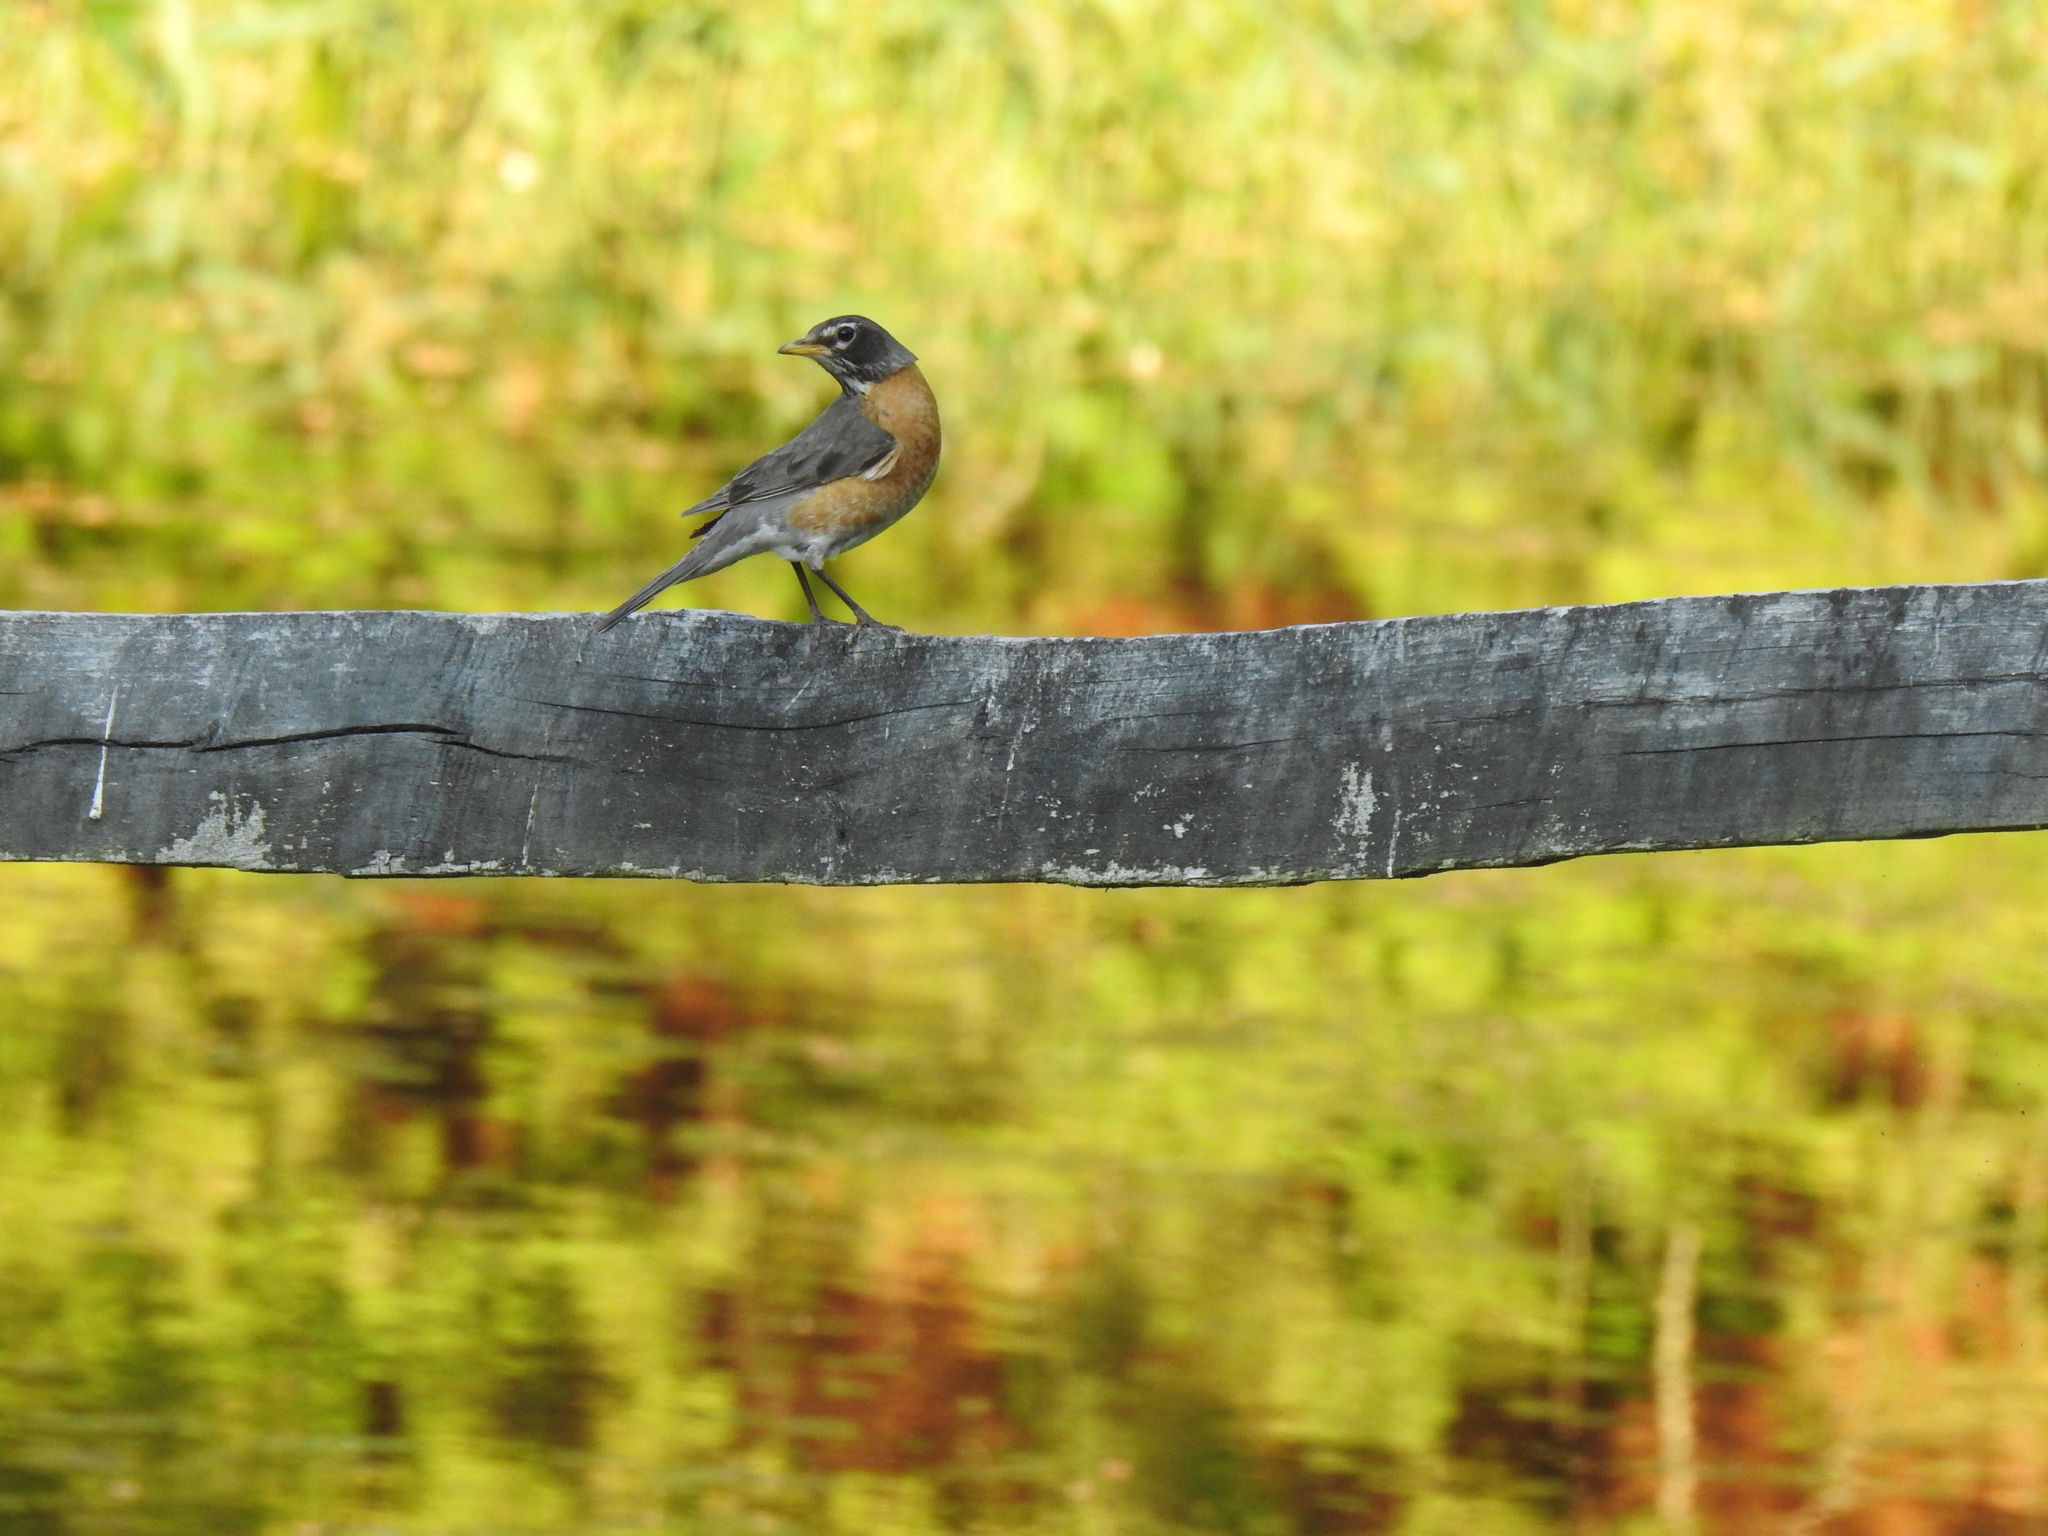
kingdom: Animalia
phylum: Chordata
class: Aves
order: Passeriformes
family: Turdidae
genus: Turdus
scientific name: Turdus migratorius
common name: American robin
